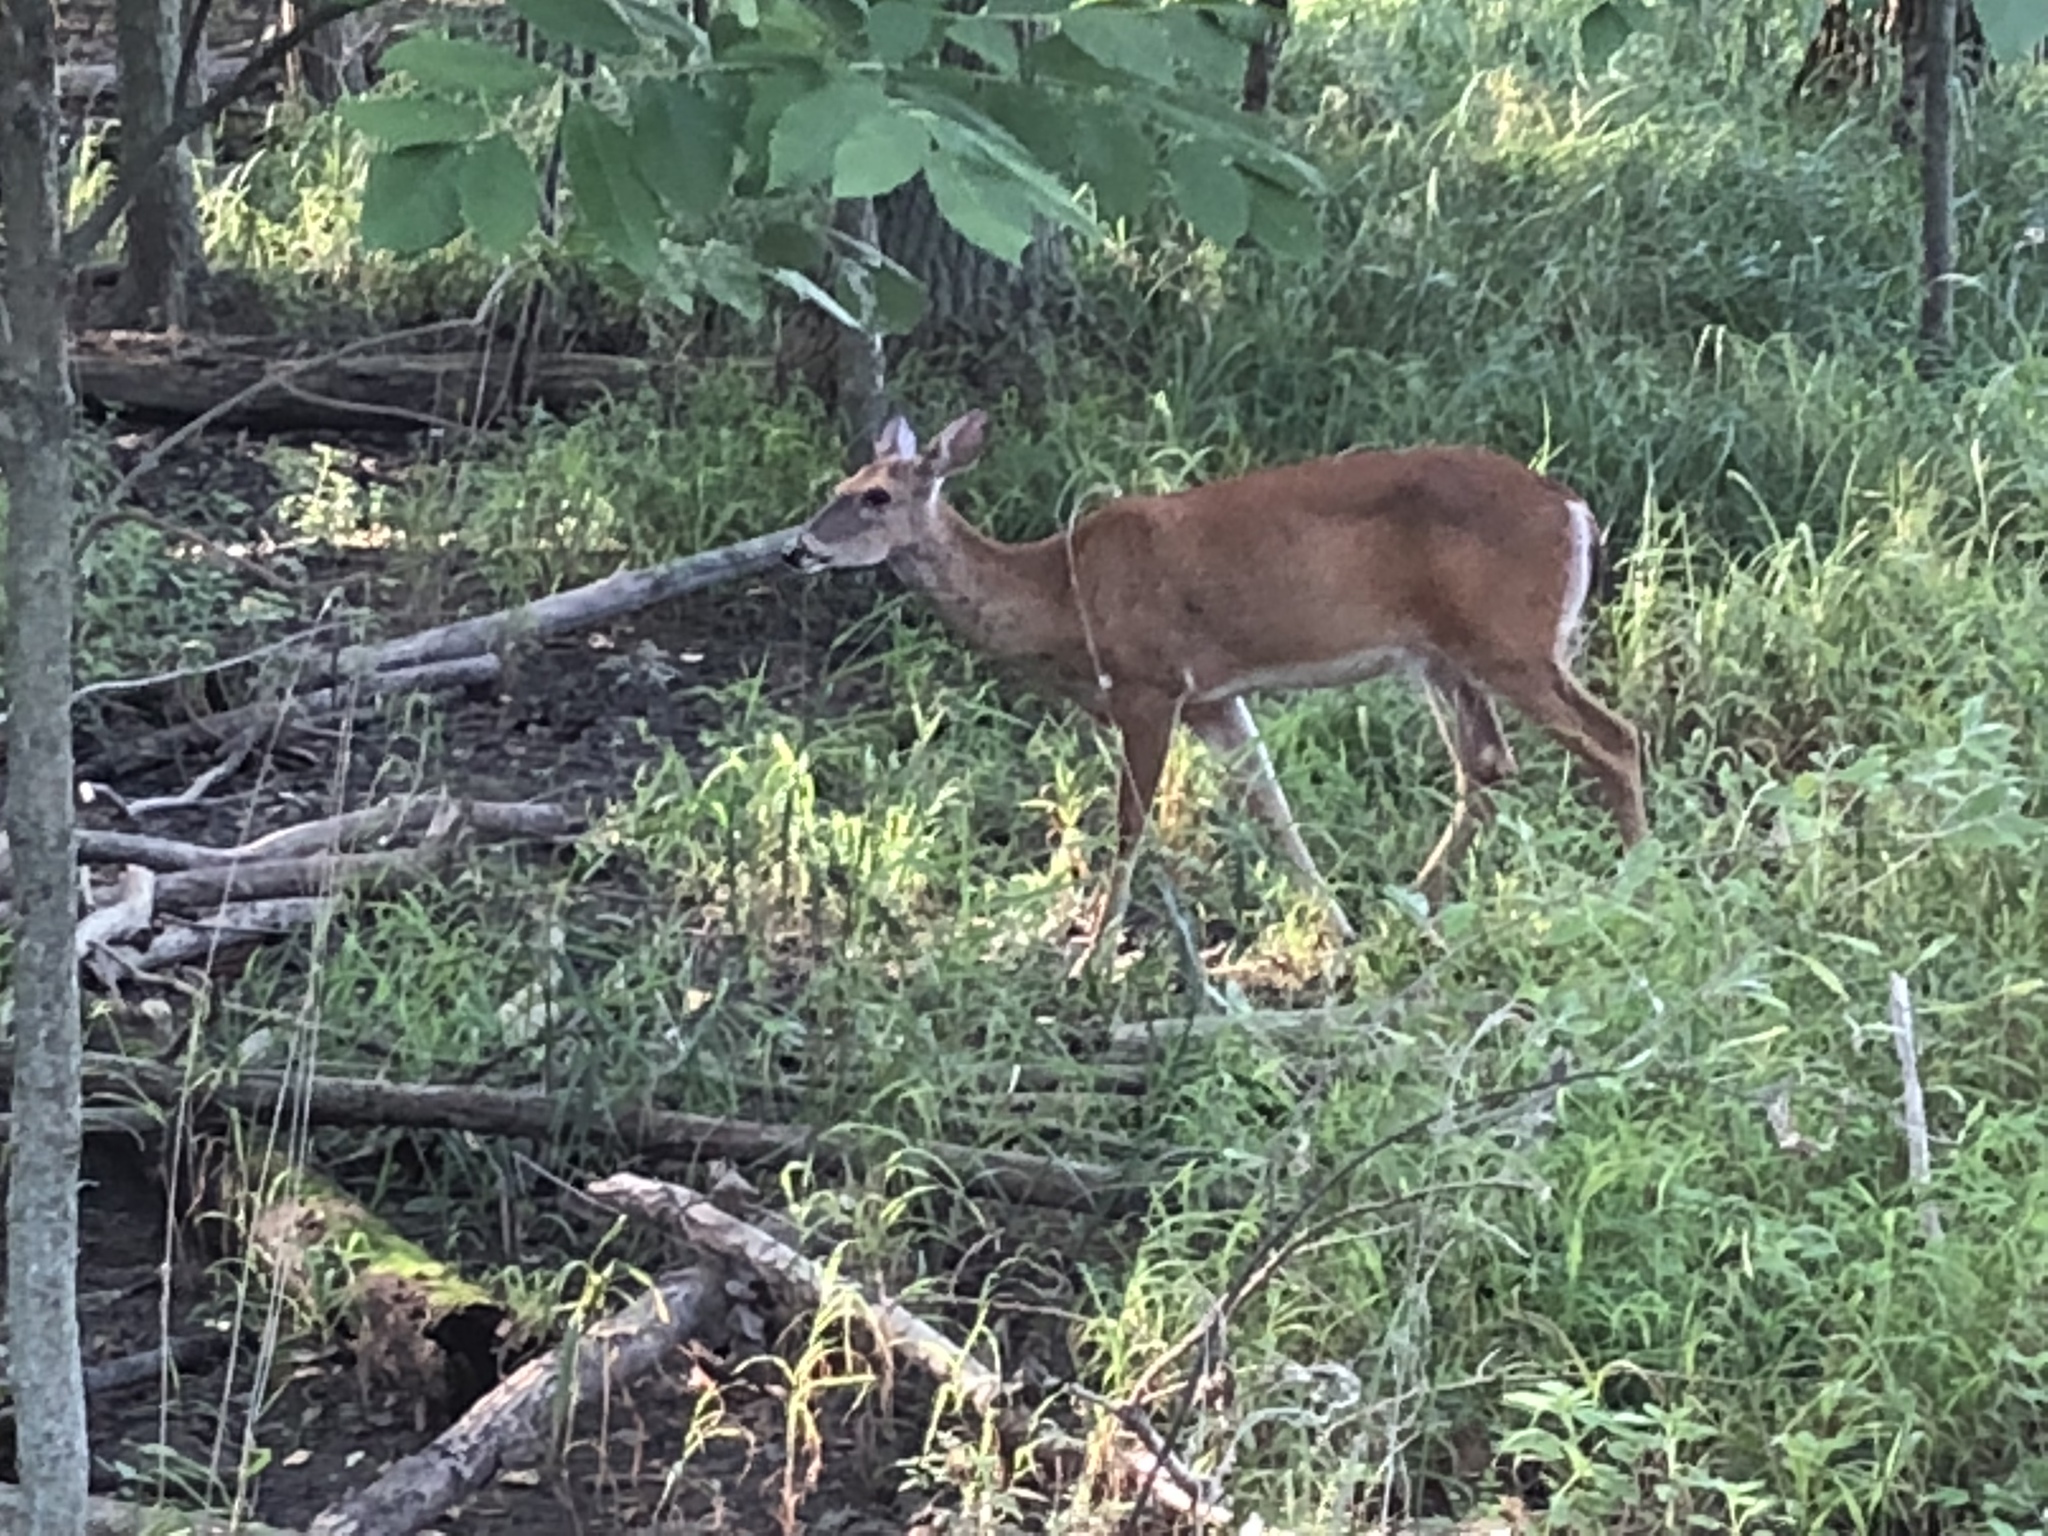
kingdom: Animalia
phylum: Chordata
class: Mammalia
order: Artiodactyla
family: Cervidae
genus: Odocoileus
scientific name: Odocoileus virginianus
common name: White-tailed deer
